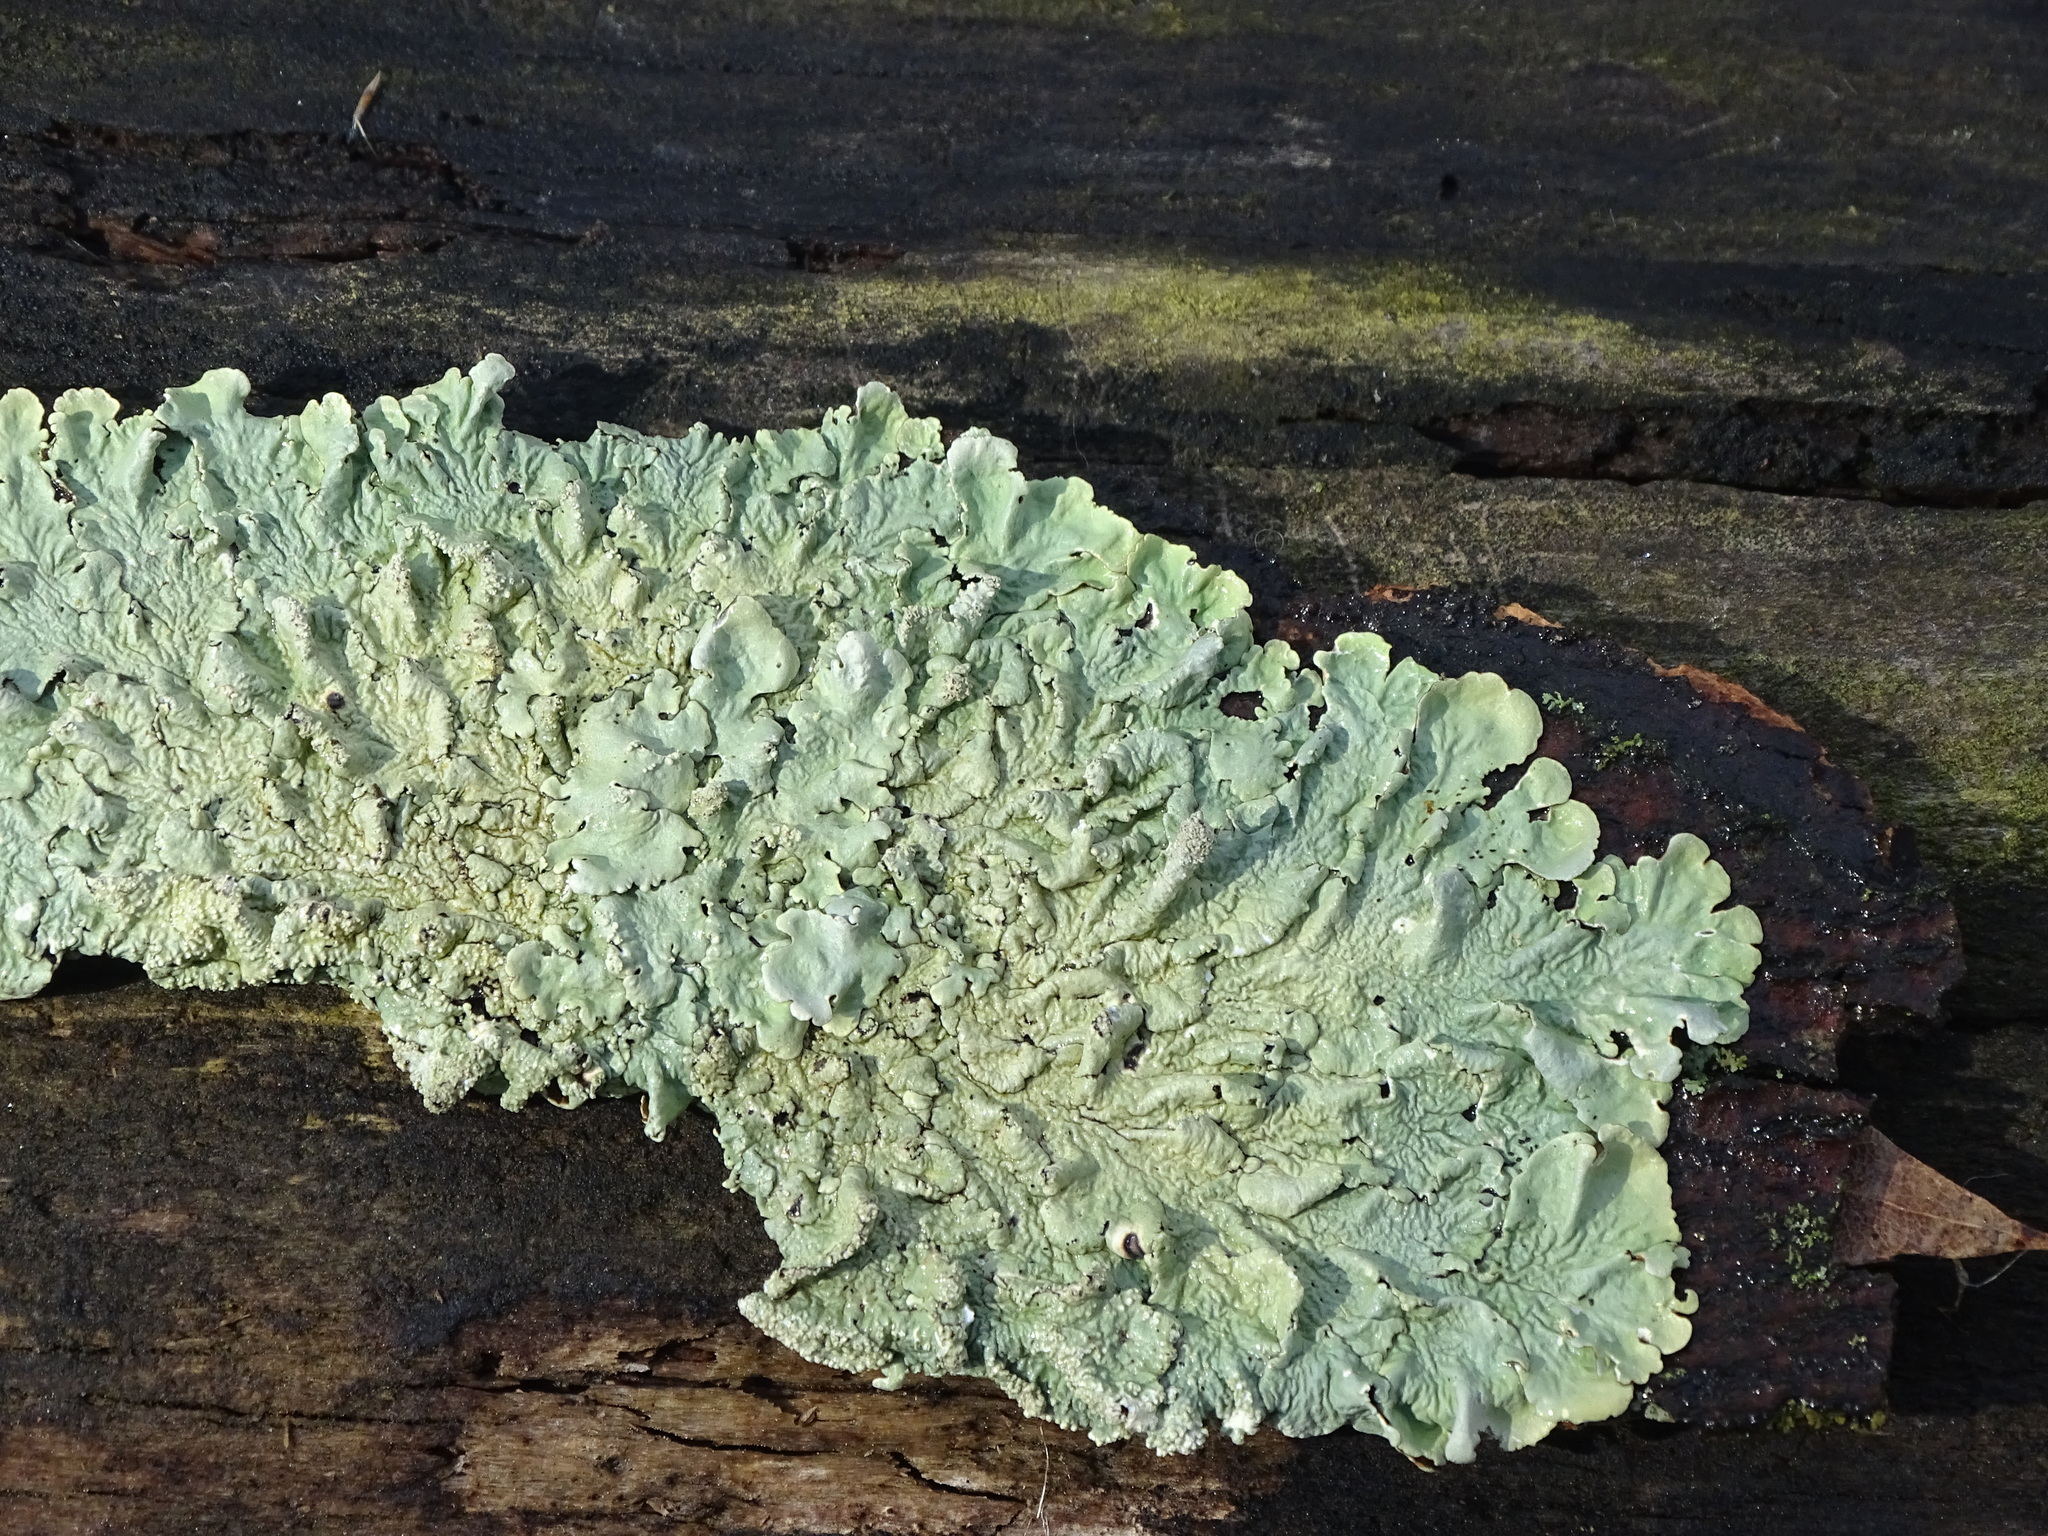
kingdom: Fungi
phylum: Ascomycota
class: Lecanoromycetes
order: Lecanorales
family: Parmeliaceae
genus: Flavoparmelia
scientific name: Flavoparmelia caperata
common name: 40-mile per hour lichen
